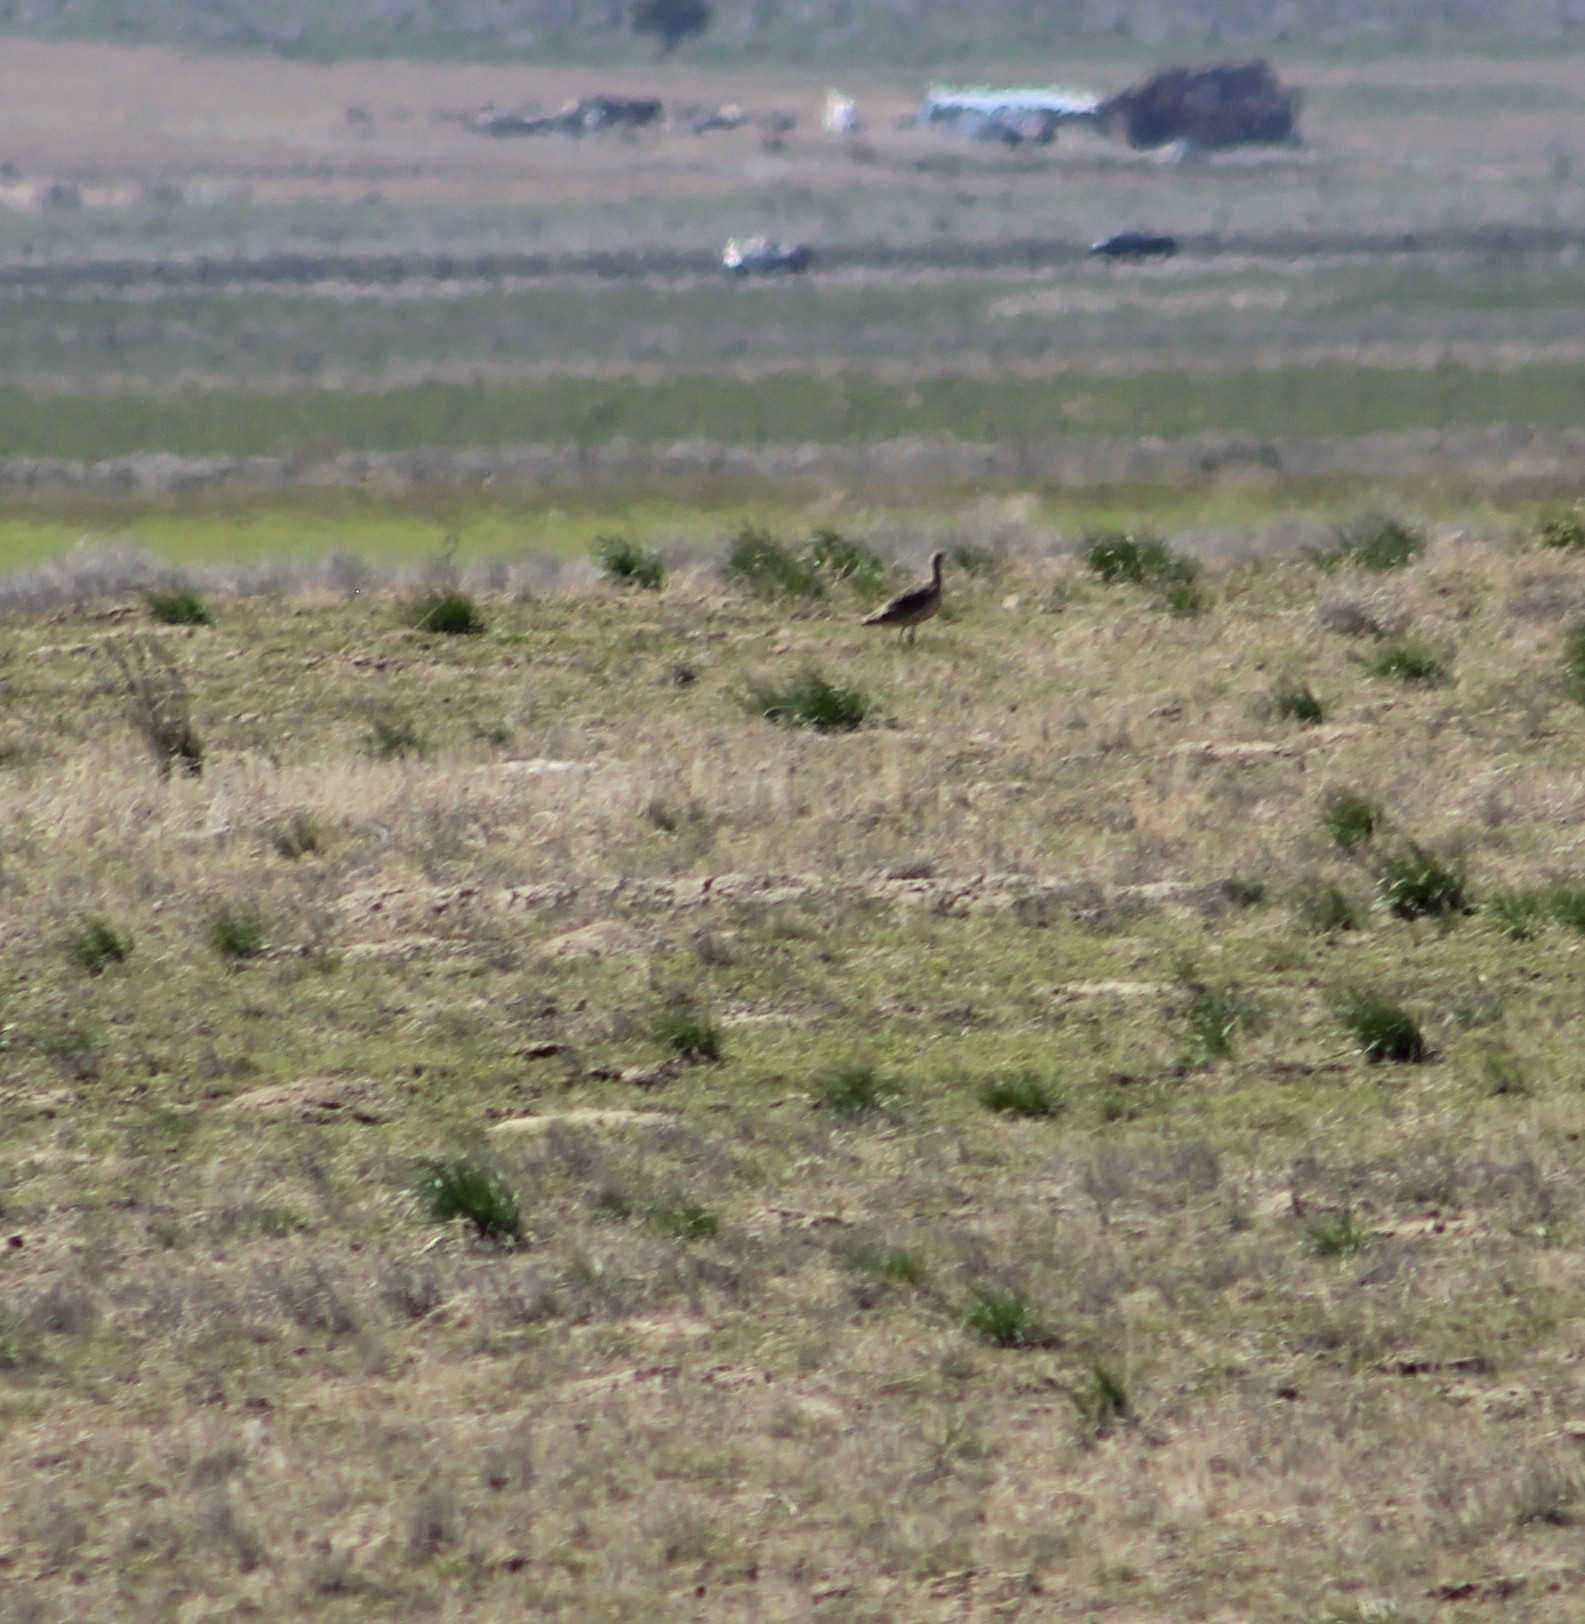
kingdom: Animalia
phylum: Chordata
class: Aves
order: Charadriiformes
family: Scolopacidae
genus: Numenius
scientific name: Numenius americanus
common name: Long-billed curlew
